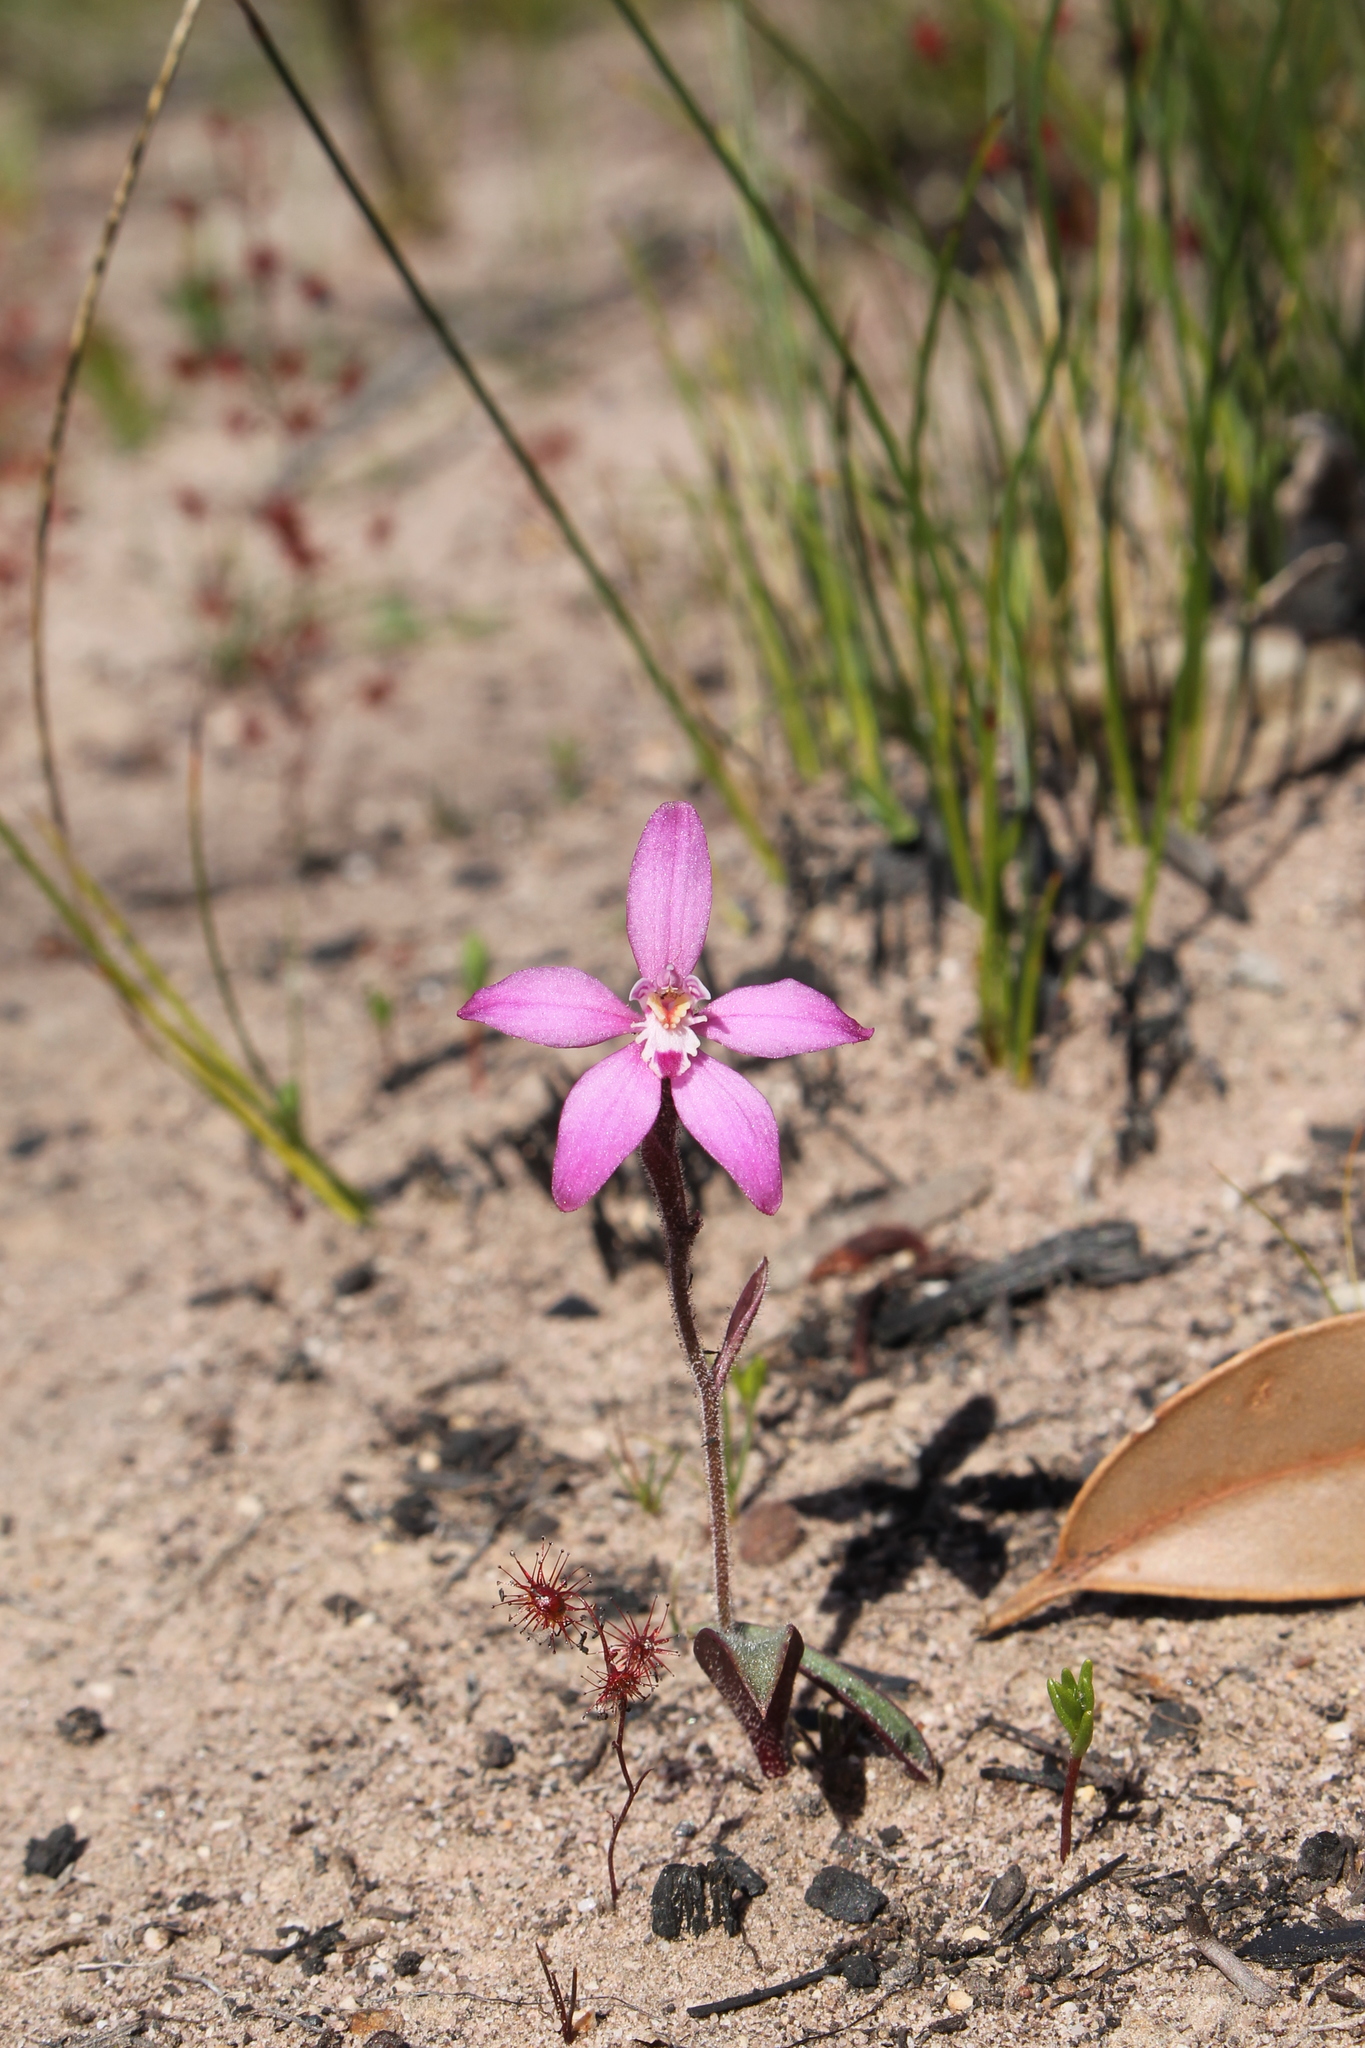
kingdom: Plantae
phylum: Tracheophyta
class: Liliopsida
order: Asparagales
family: Orchidaceae
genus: Caladenia
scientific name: Caladenia reptans
